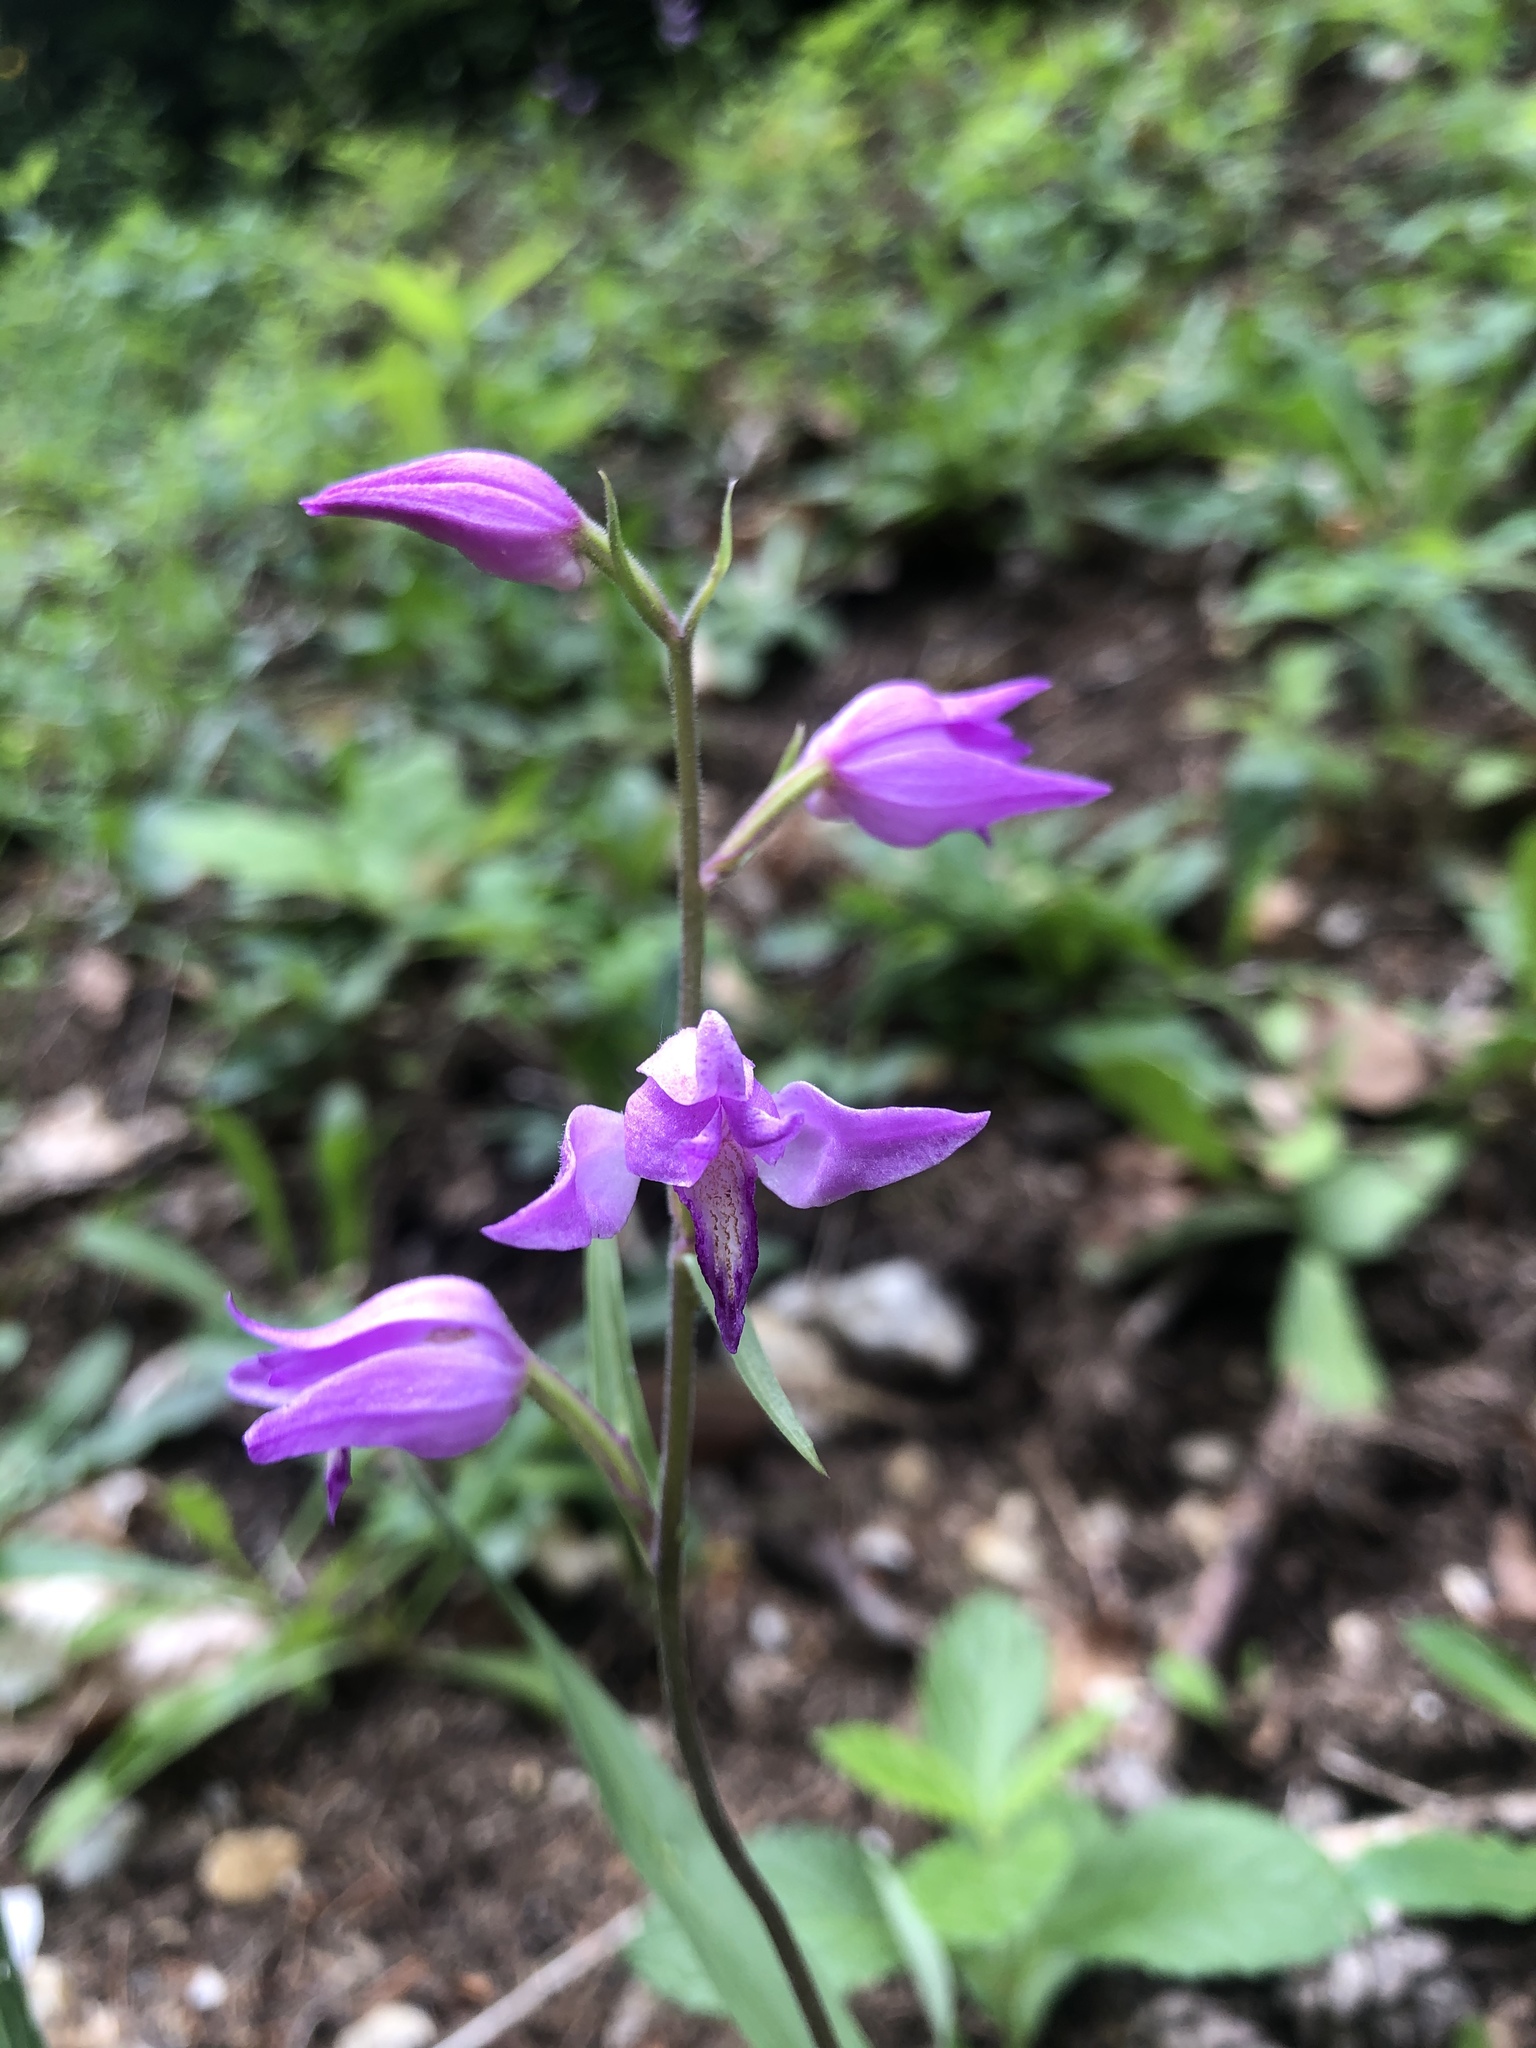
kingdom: Plantae
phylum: Tracheophyta
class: Liliopsida
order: Asparagales
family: Orchidaceae
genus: Cephalanthera
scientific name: Cephalanthera rubra
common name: Red helleborine
